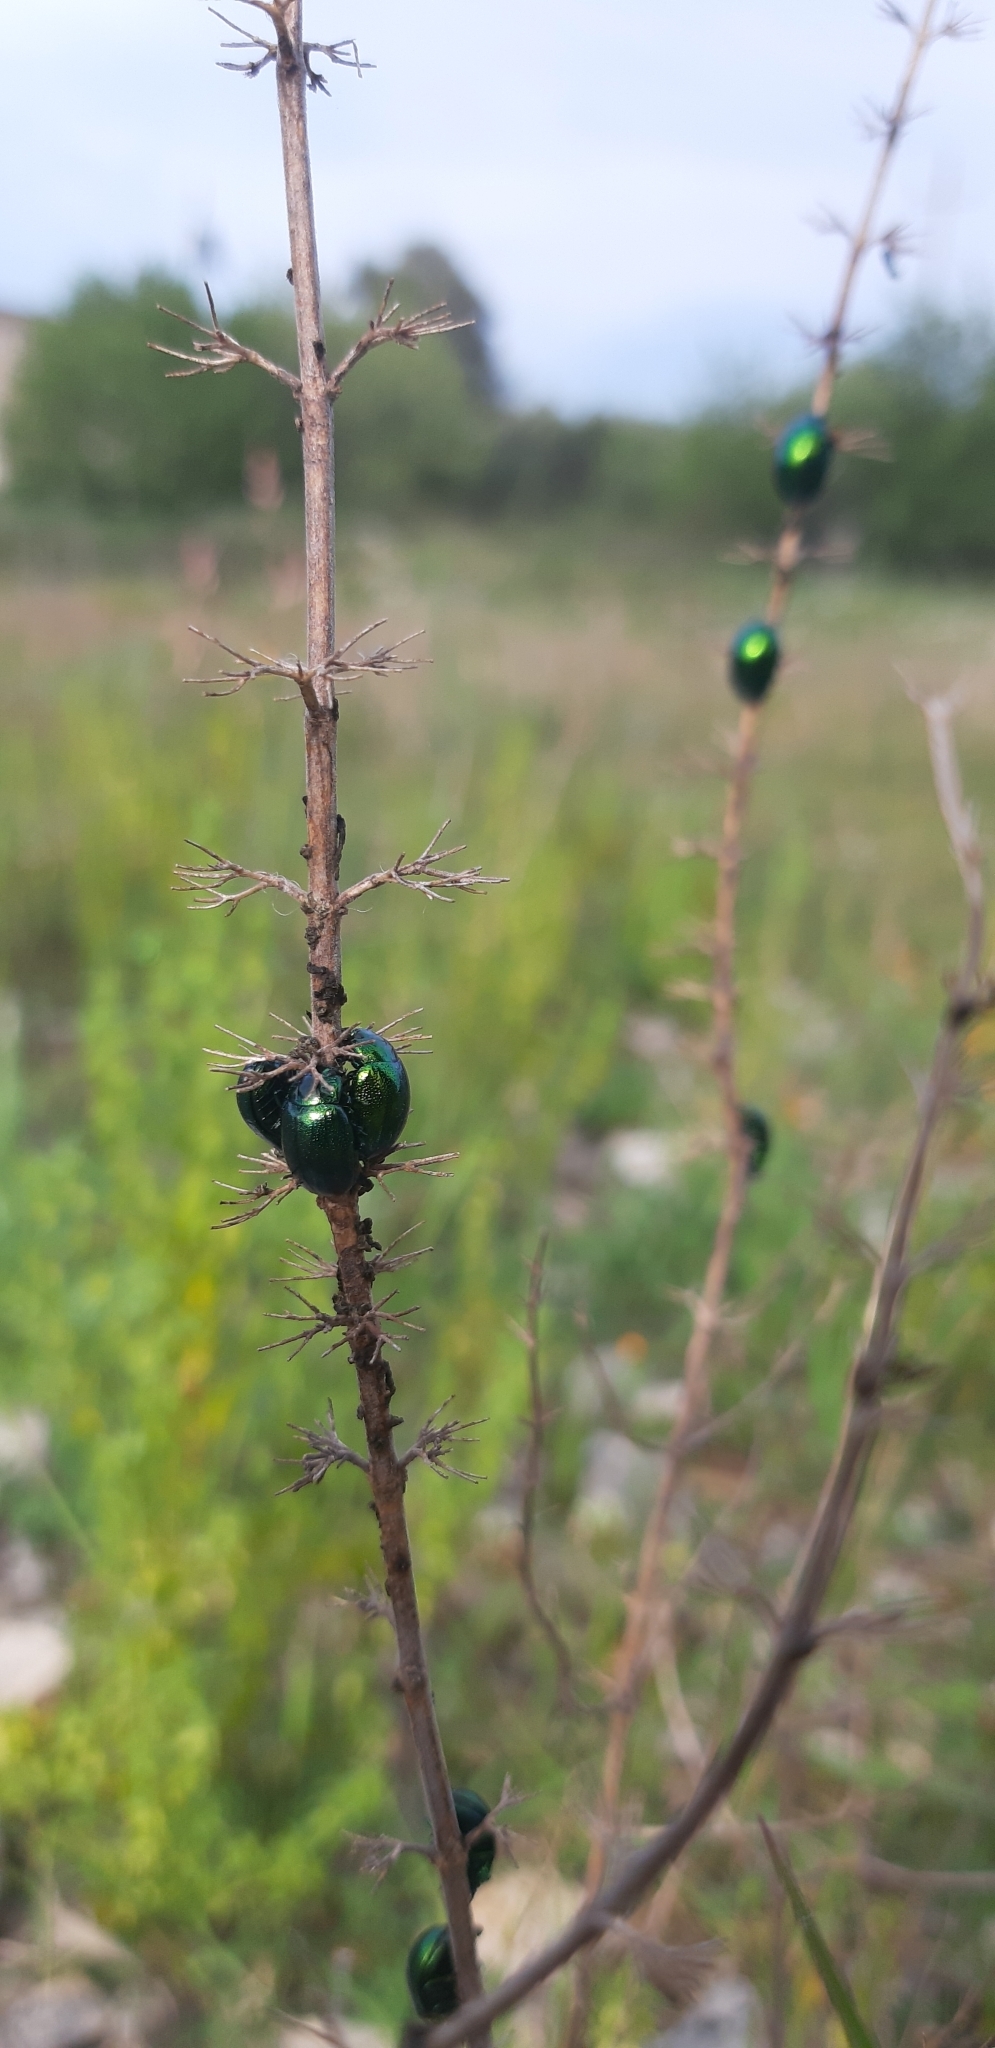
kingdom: Animalia
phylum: Arthropoda
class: Insecta
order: Coleoptera
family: Chrysomelidae
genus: Chrysolina
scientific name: Chrysolina herbacea
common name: Mint leaf beatle
